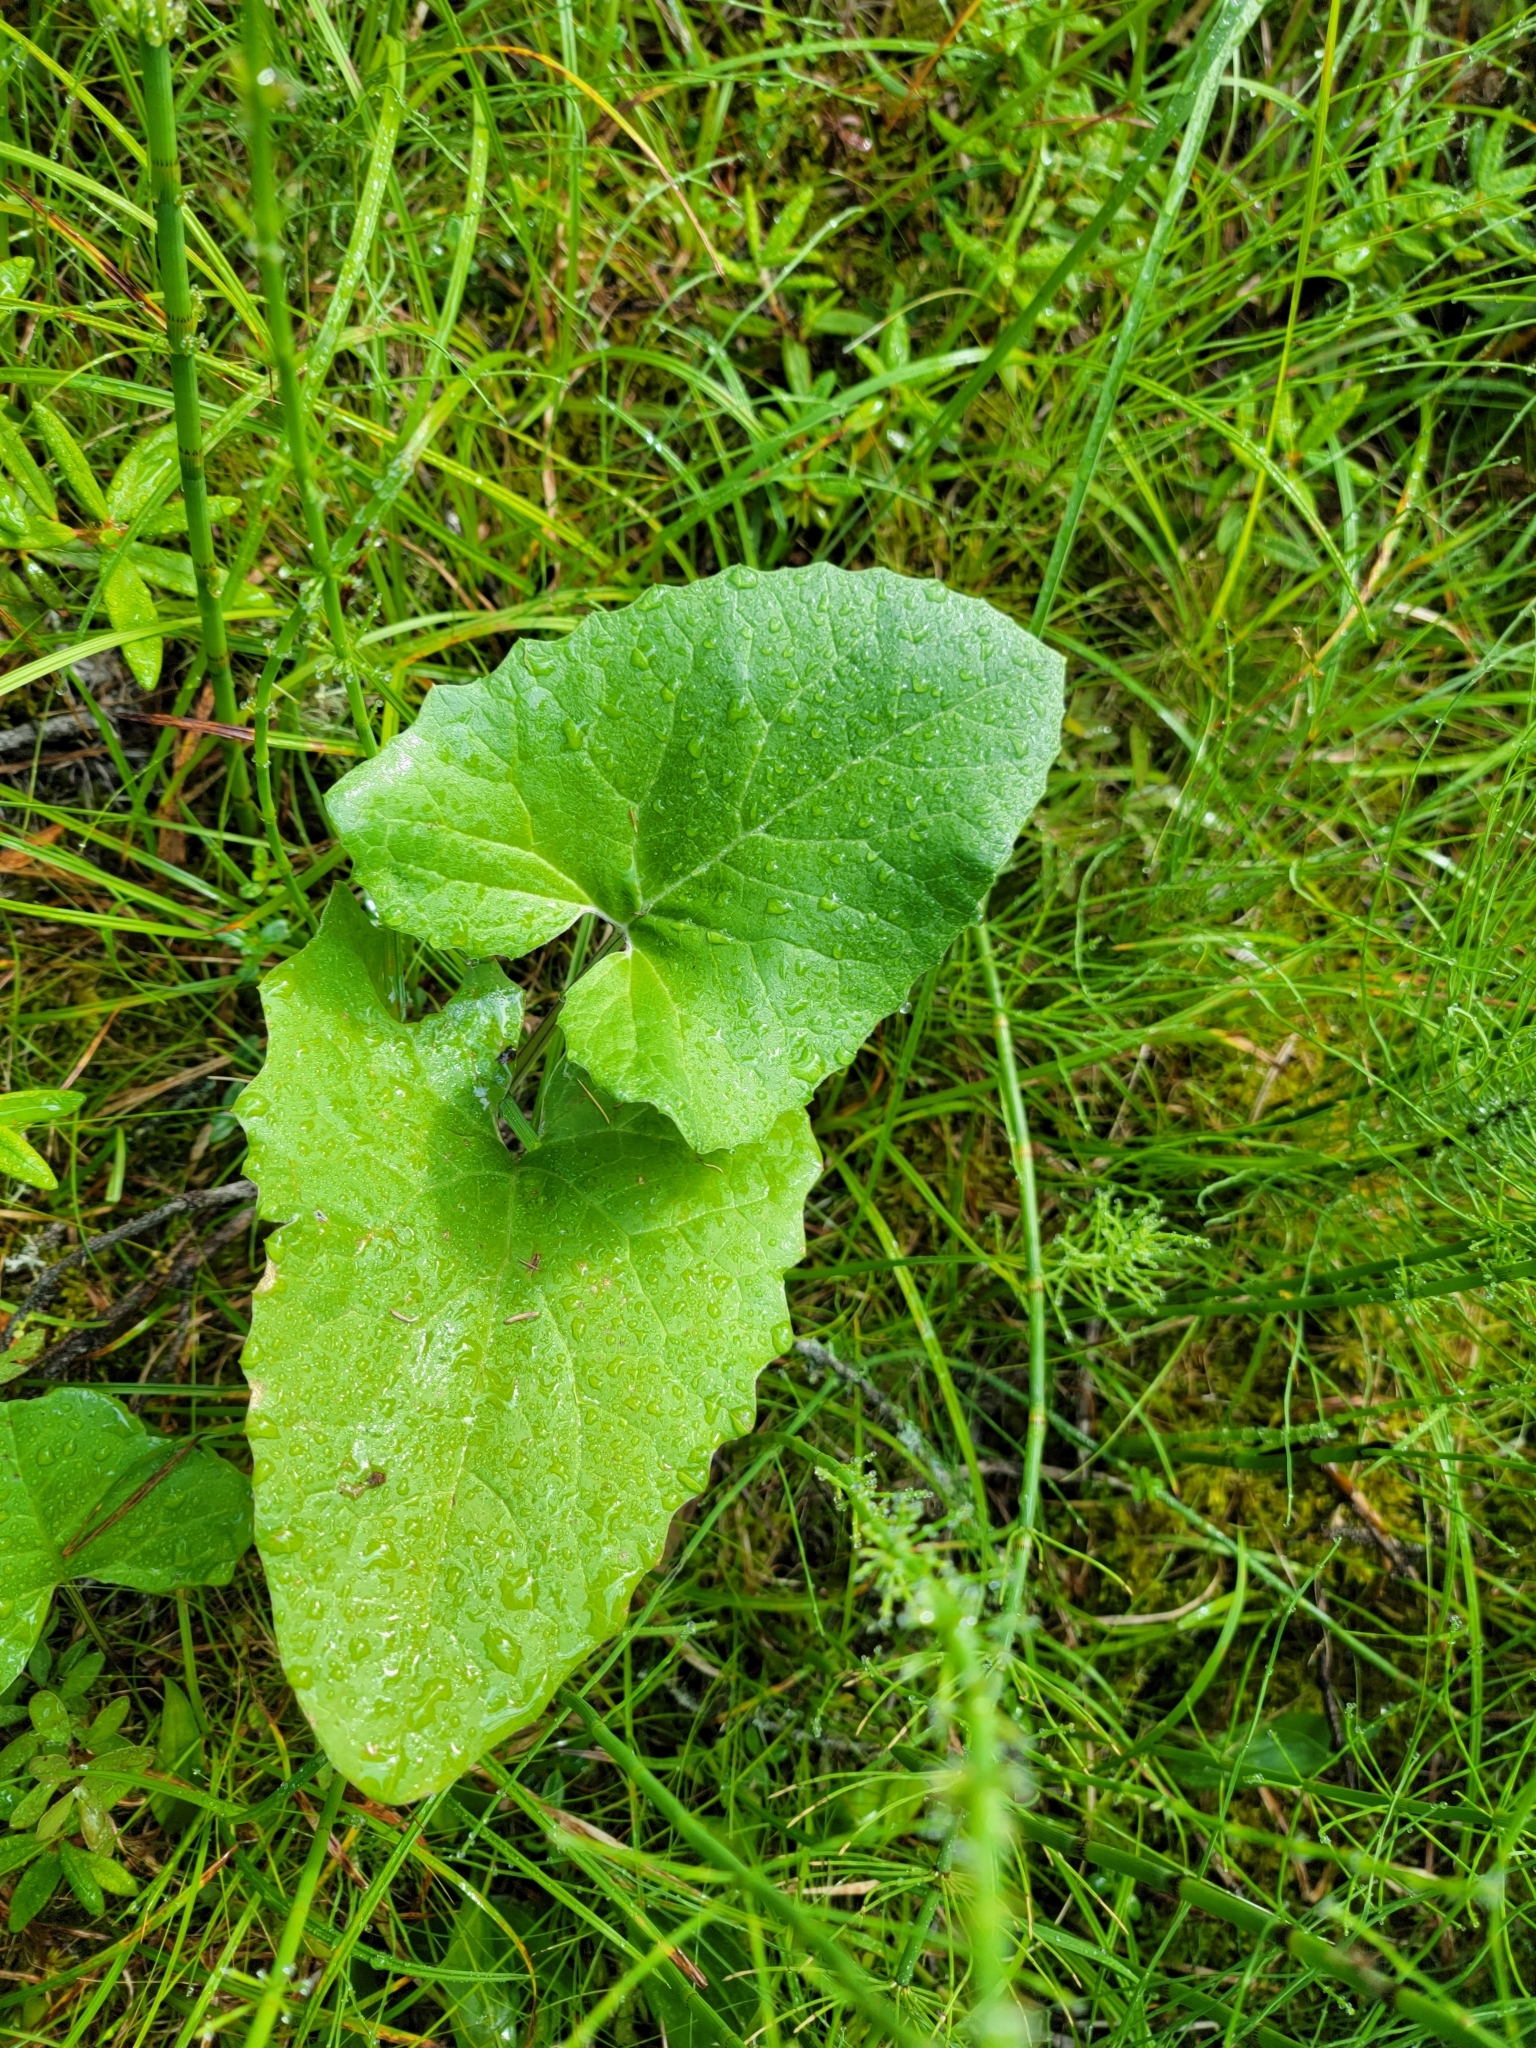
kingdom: Plantae
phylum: Tracheophyta
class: Magnoliopsida
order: Asterales
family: Asteraceae
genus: Petasites
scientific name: Petasites frigidus
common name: Arctic butterbur
